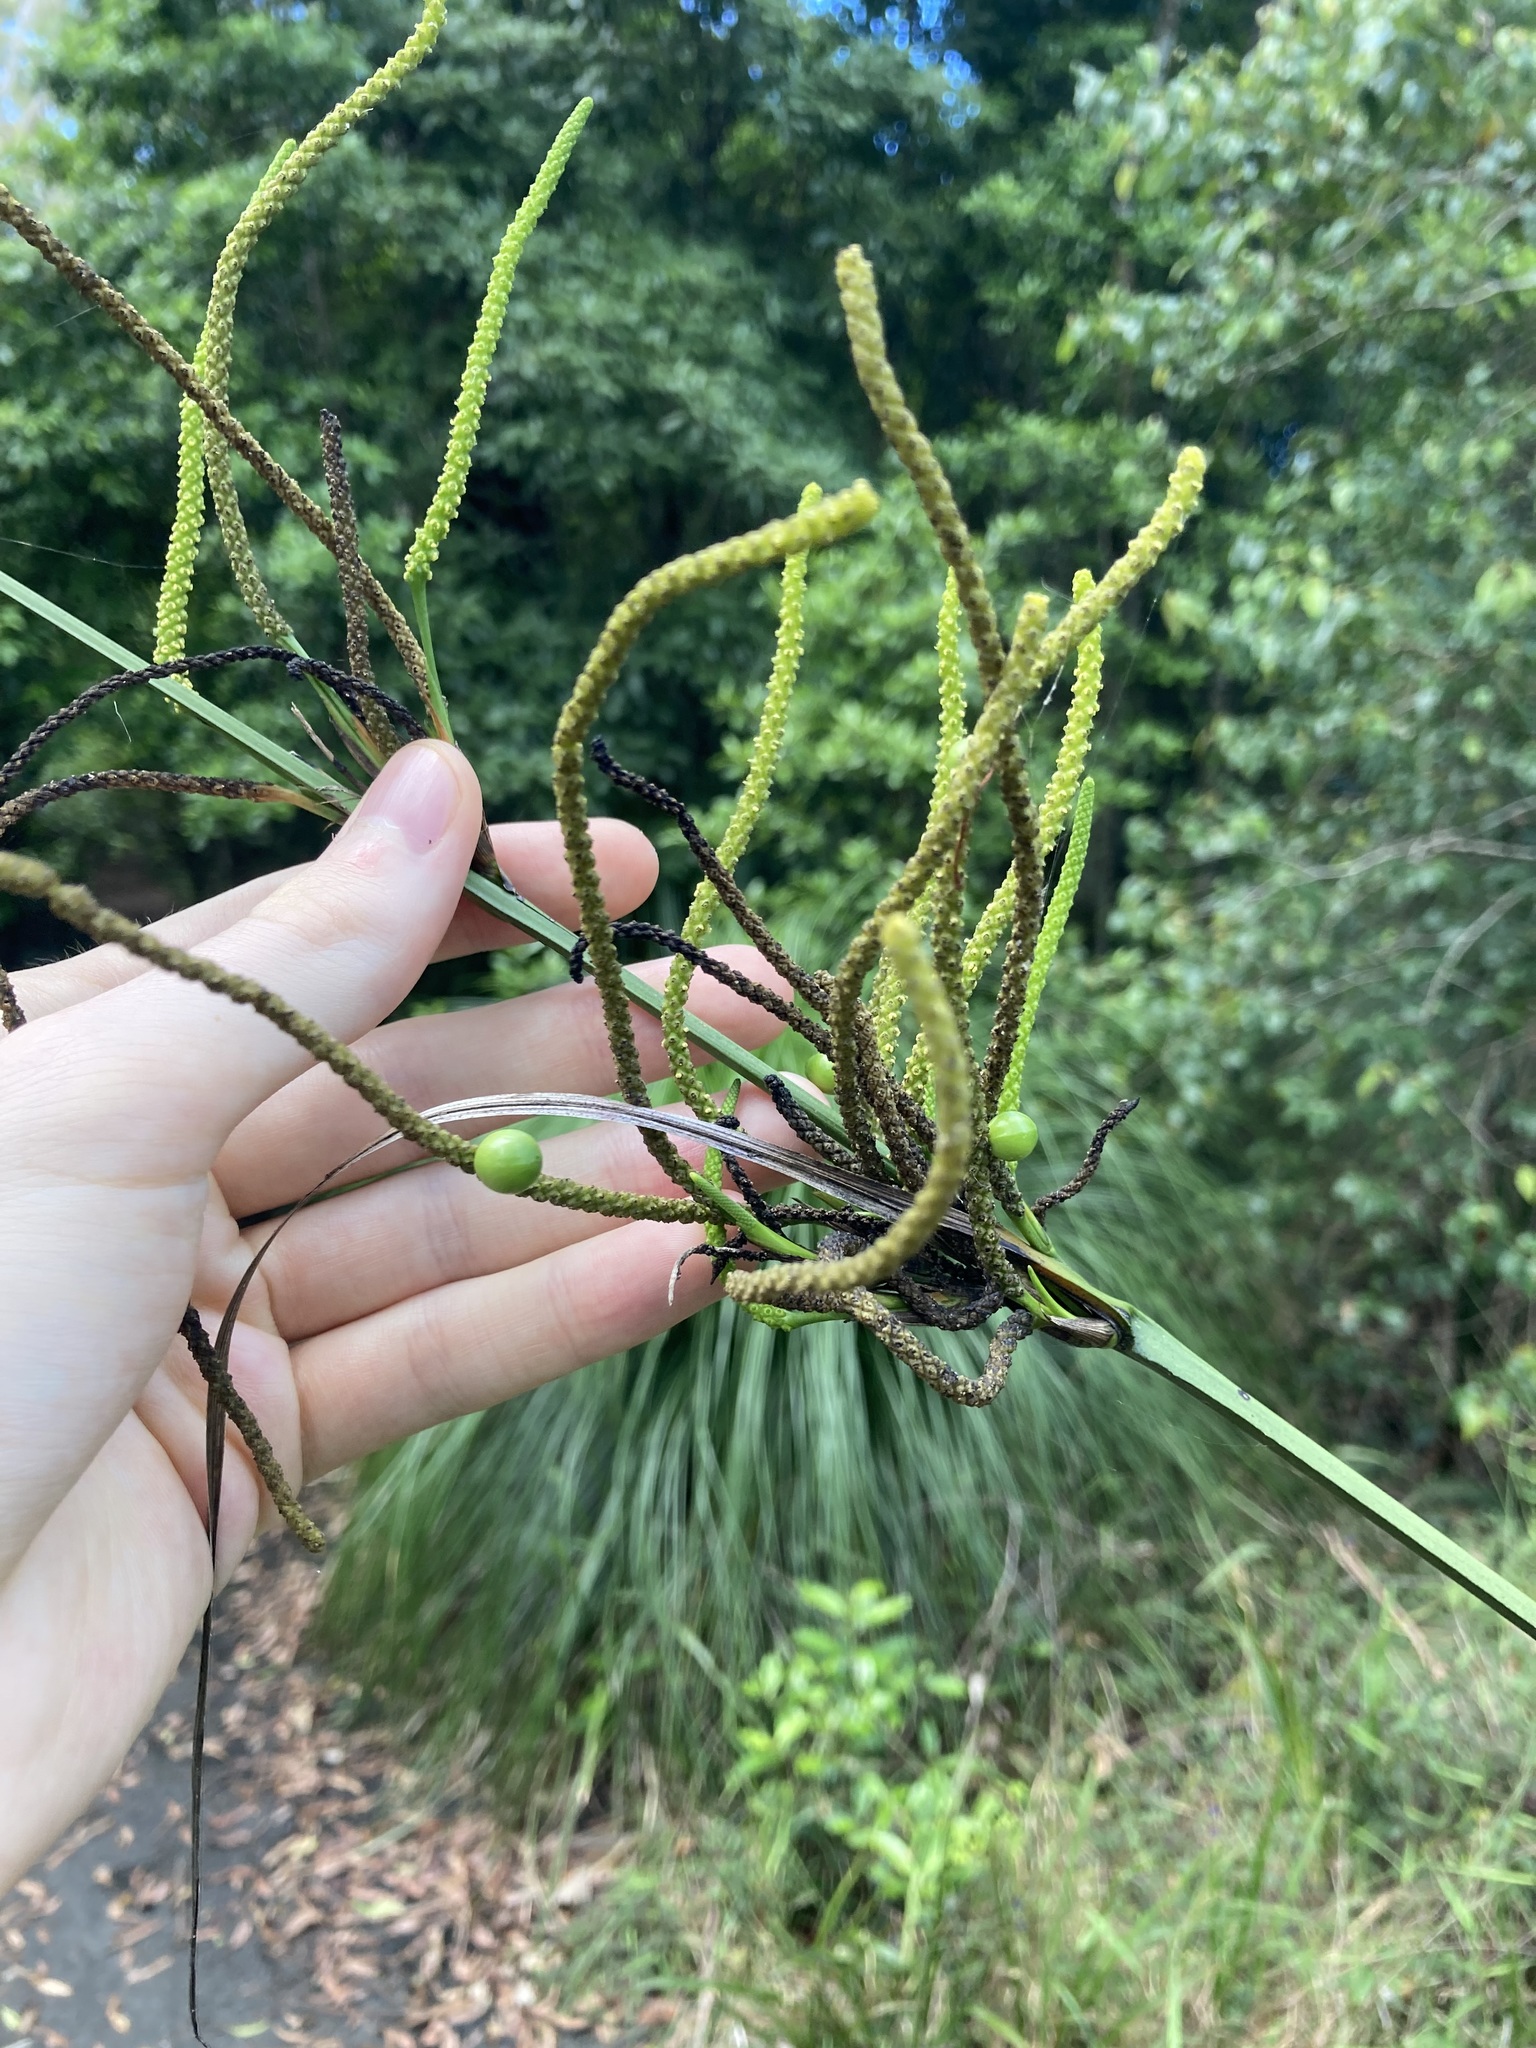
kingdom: Plantae
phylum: Tracheophyta
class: Liliopsida
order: Alismatales
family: Araceae
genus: Gymnostachys
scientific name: Gymnostachys anceps
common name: Settler's-flax
